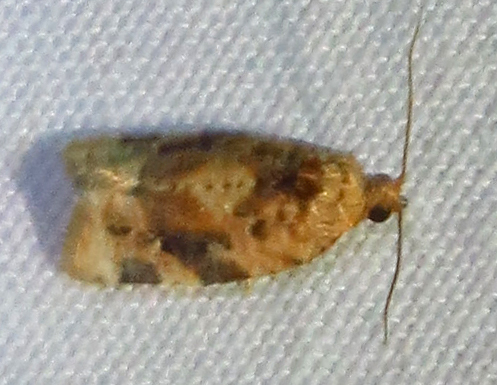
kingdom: Animalia
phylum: Arthropoda
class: Insecta
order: Lepidoptera
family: Tortricidae
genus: Argyrotaenia
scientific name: Argyrotaenia velutinana
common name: Red-banded leafroller moth
